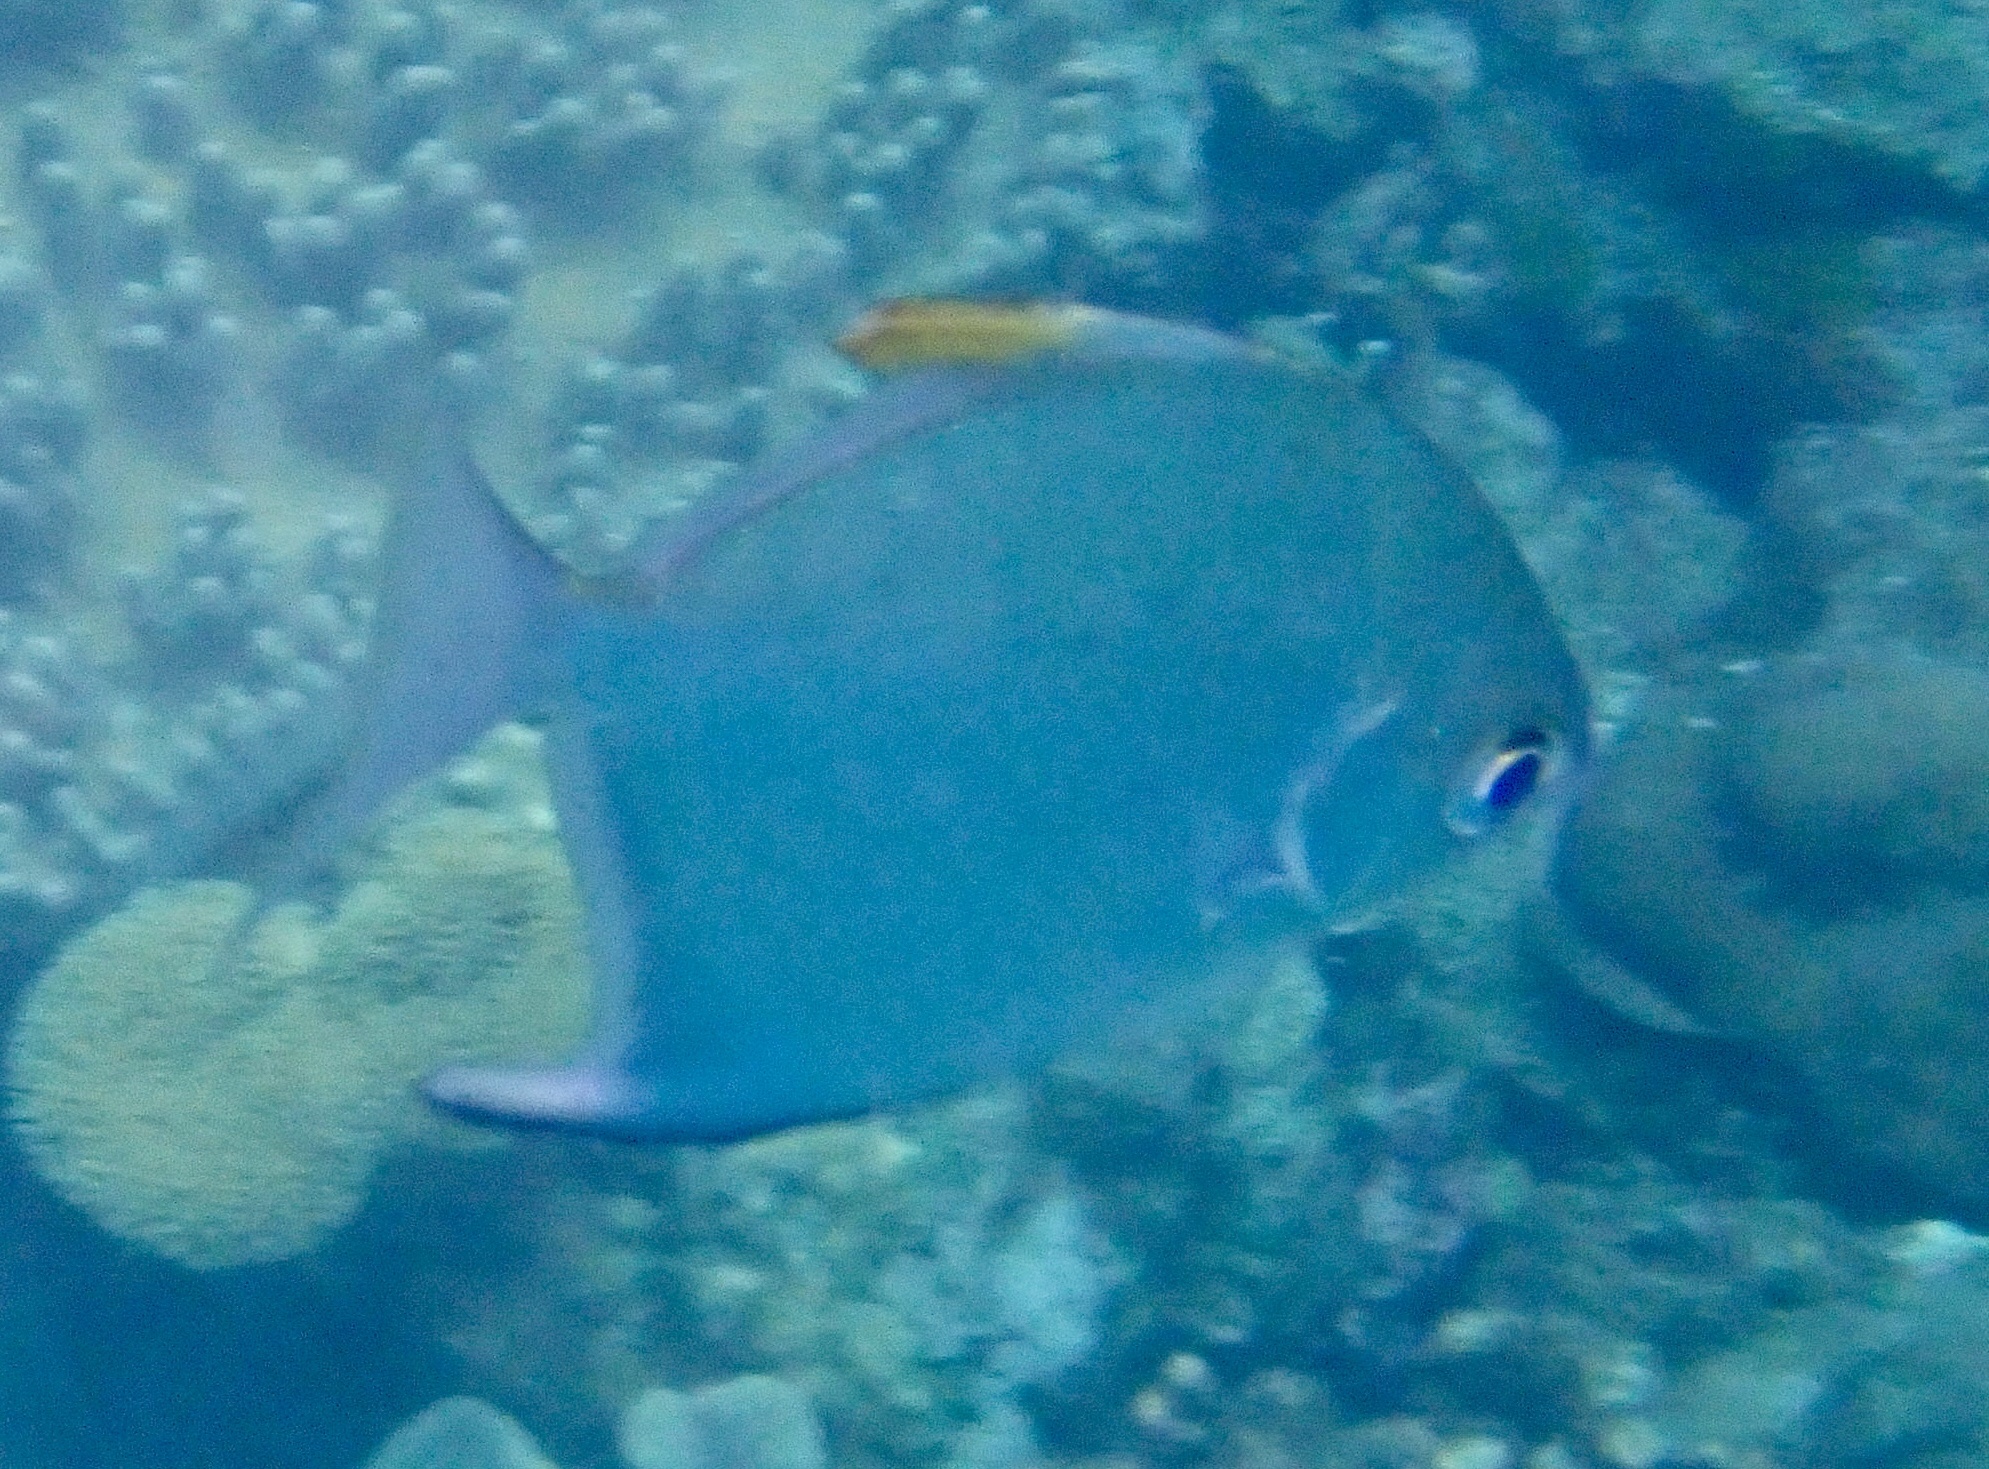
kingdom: Animalia
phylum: Chordata
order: Perciformes
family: Monodactylidae
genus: Monodactylus
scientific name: Monodactylus argenteus
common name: Silver moony
